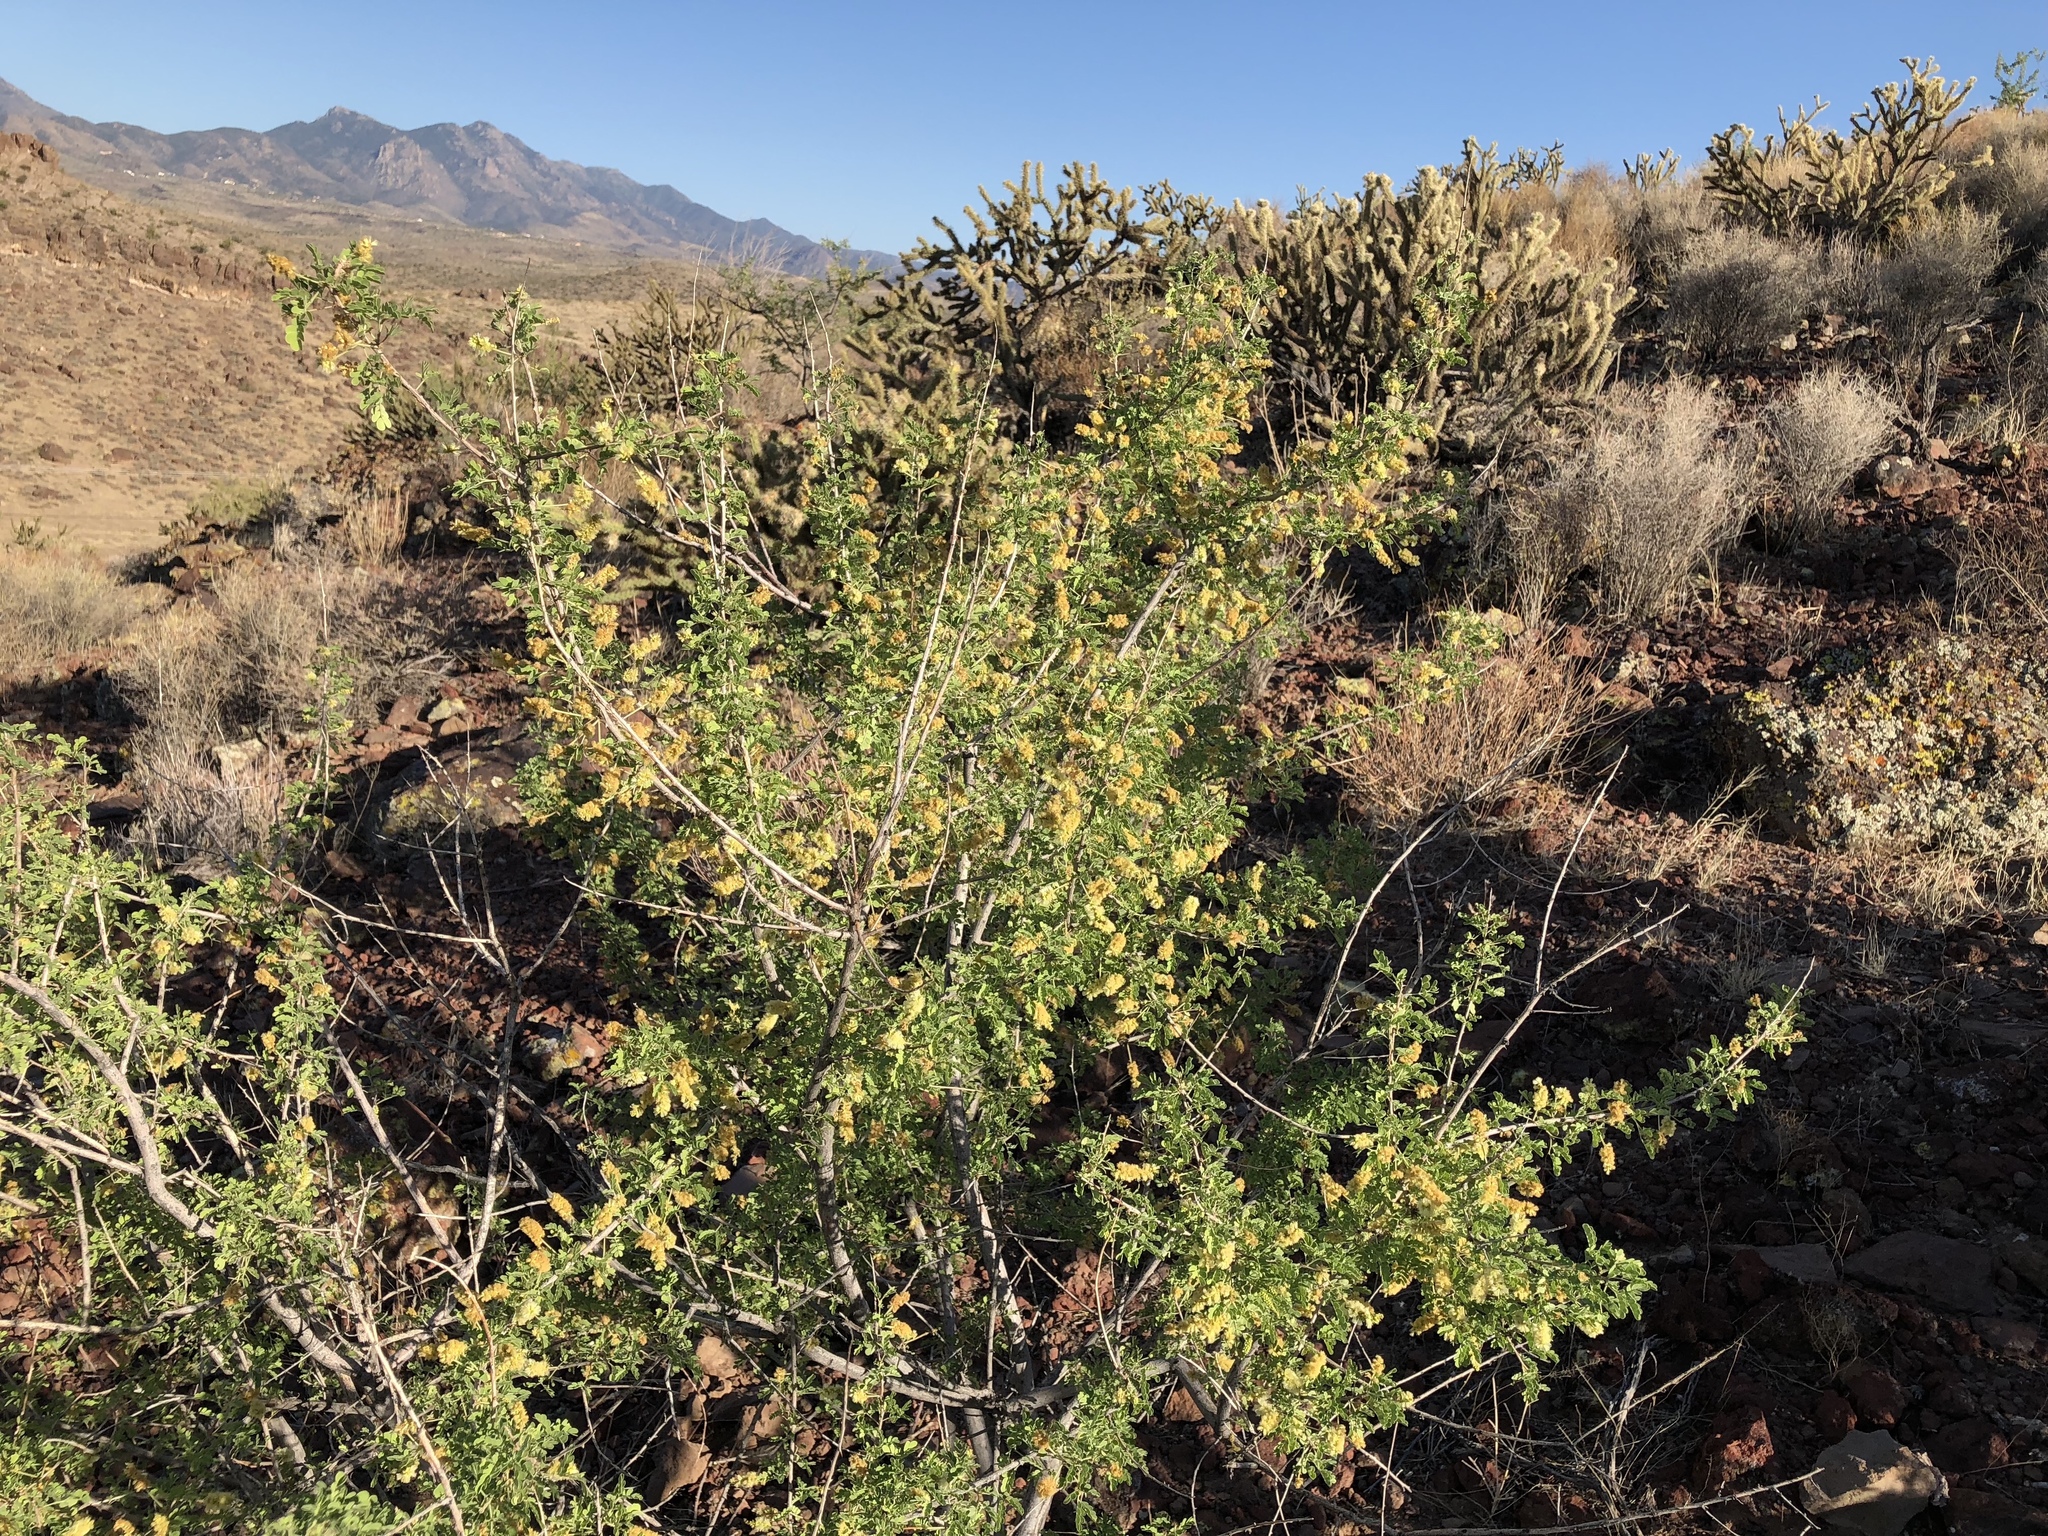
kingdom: Plantae
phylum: Tracheophyta
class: Magnoliopsida
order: Fabales
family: Fabaceae
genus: Senegalia
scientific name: Senegalia greggii
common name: Texas-mimosa
